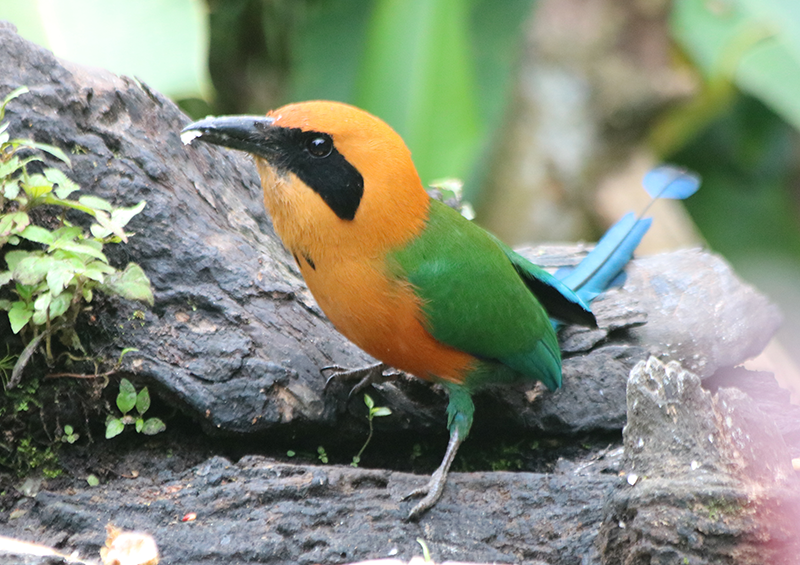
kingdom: Animalia
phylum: Chordata
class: Aves
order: Coraciiformes
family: Momotidae
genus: Baryphthengus
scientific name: Baryphthengus martii
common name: Rufous motmot
